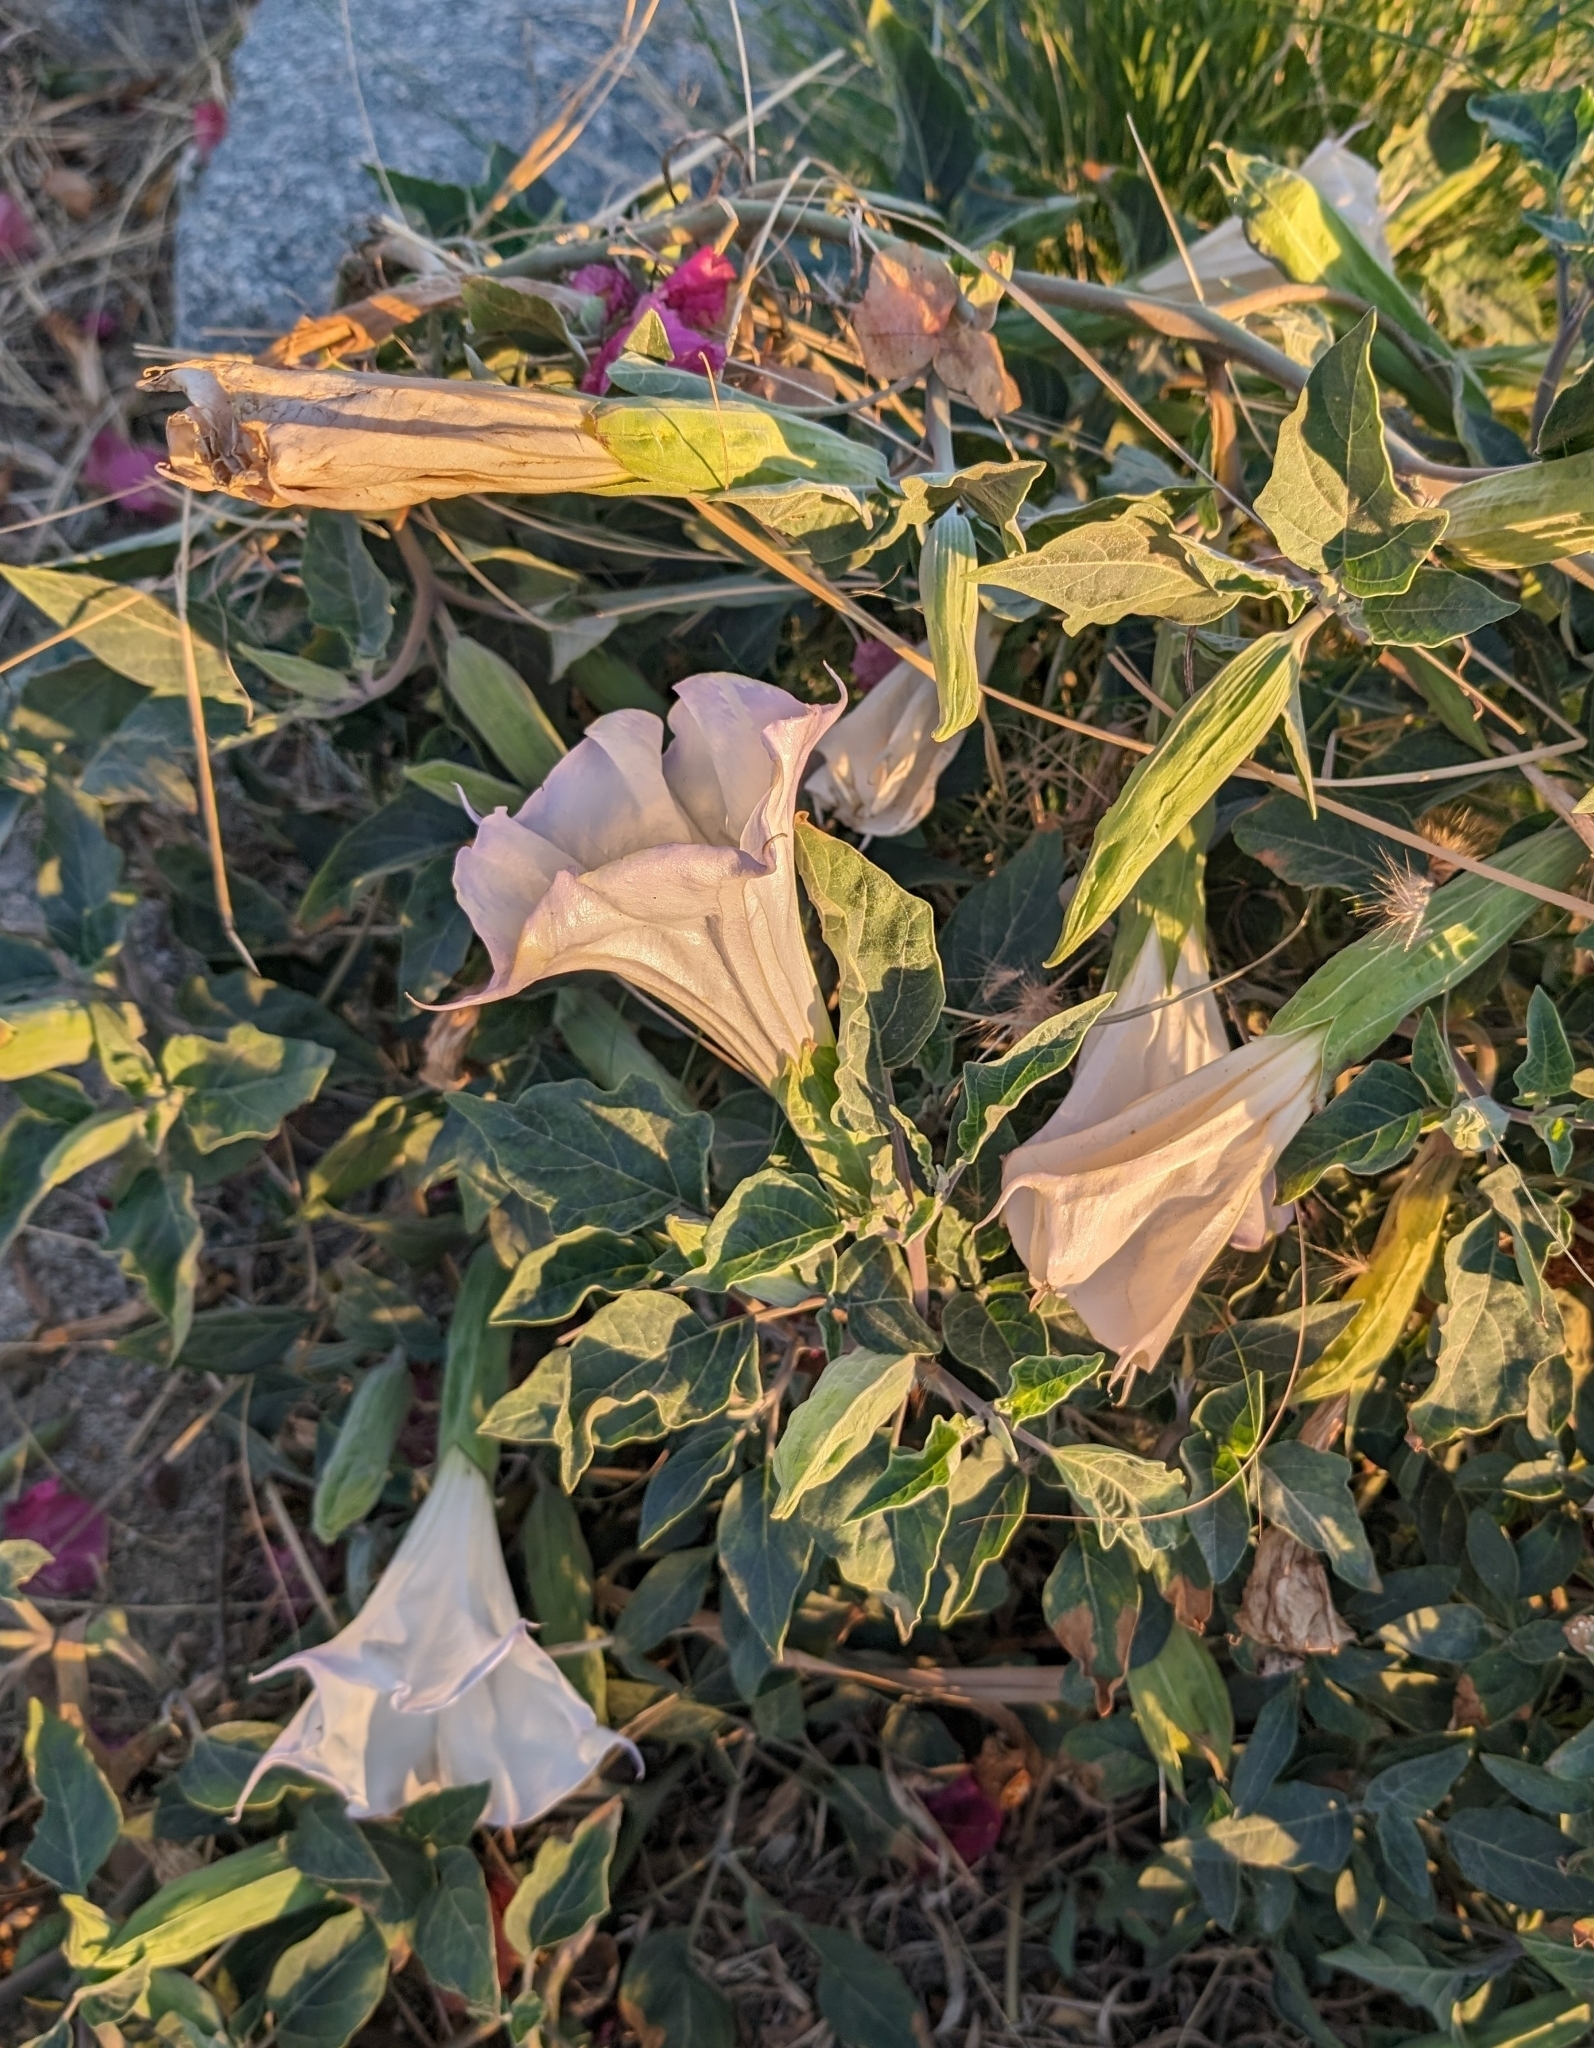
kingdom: Plantae
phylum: Tracheophyta
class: Magnoliopsida
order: Solanales
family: Solanaceae
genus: Datura
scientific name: Datura wrightii
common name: Sacred thorn-apple
